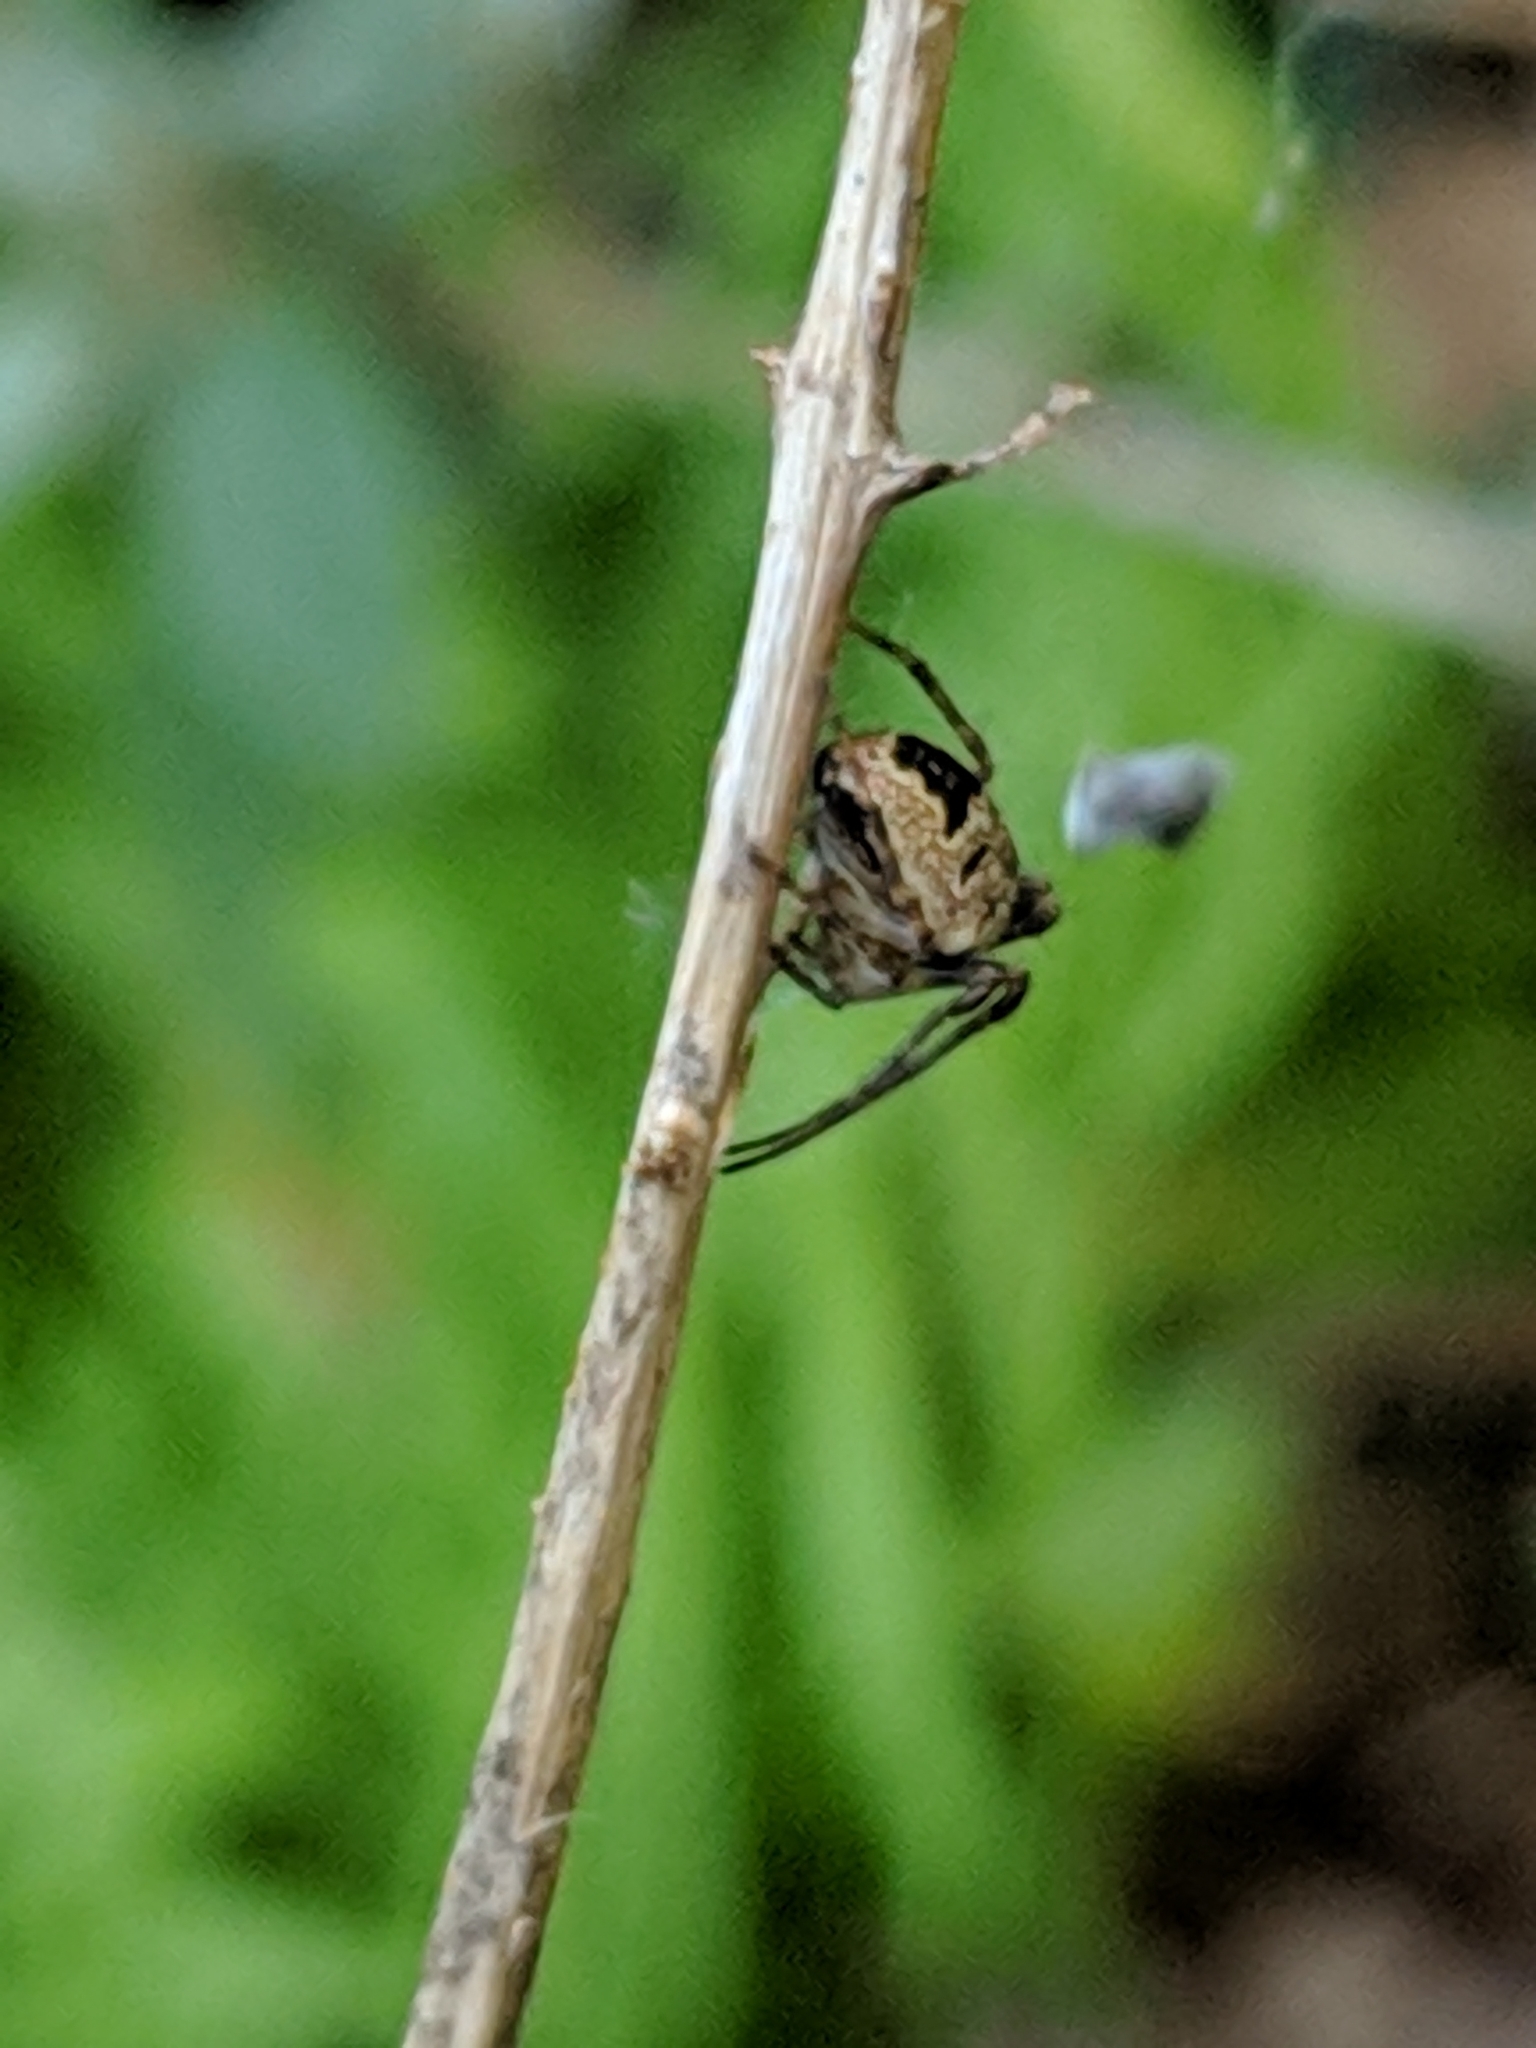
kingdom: Animalia
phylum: Arthropoda
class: Arachnida
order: Araneae
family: Araneidae
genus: Zilla
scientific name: Zilla diodia
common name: Zilla diodia
